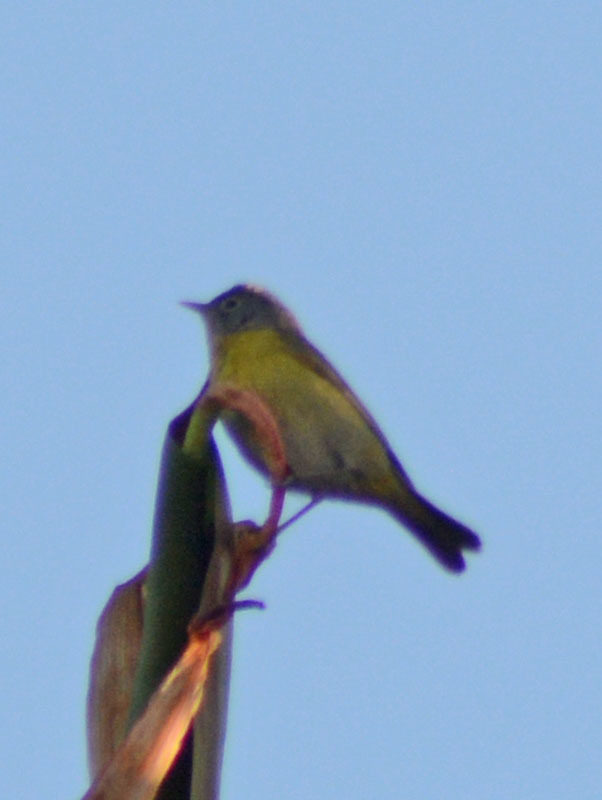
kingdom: Animalia
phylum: Chordata
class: Aves
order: Passeriformes
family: Parulidae
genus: Leiothlypis
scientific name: Leiothlypis ruficapilla
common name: Nashville warbler
